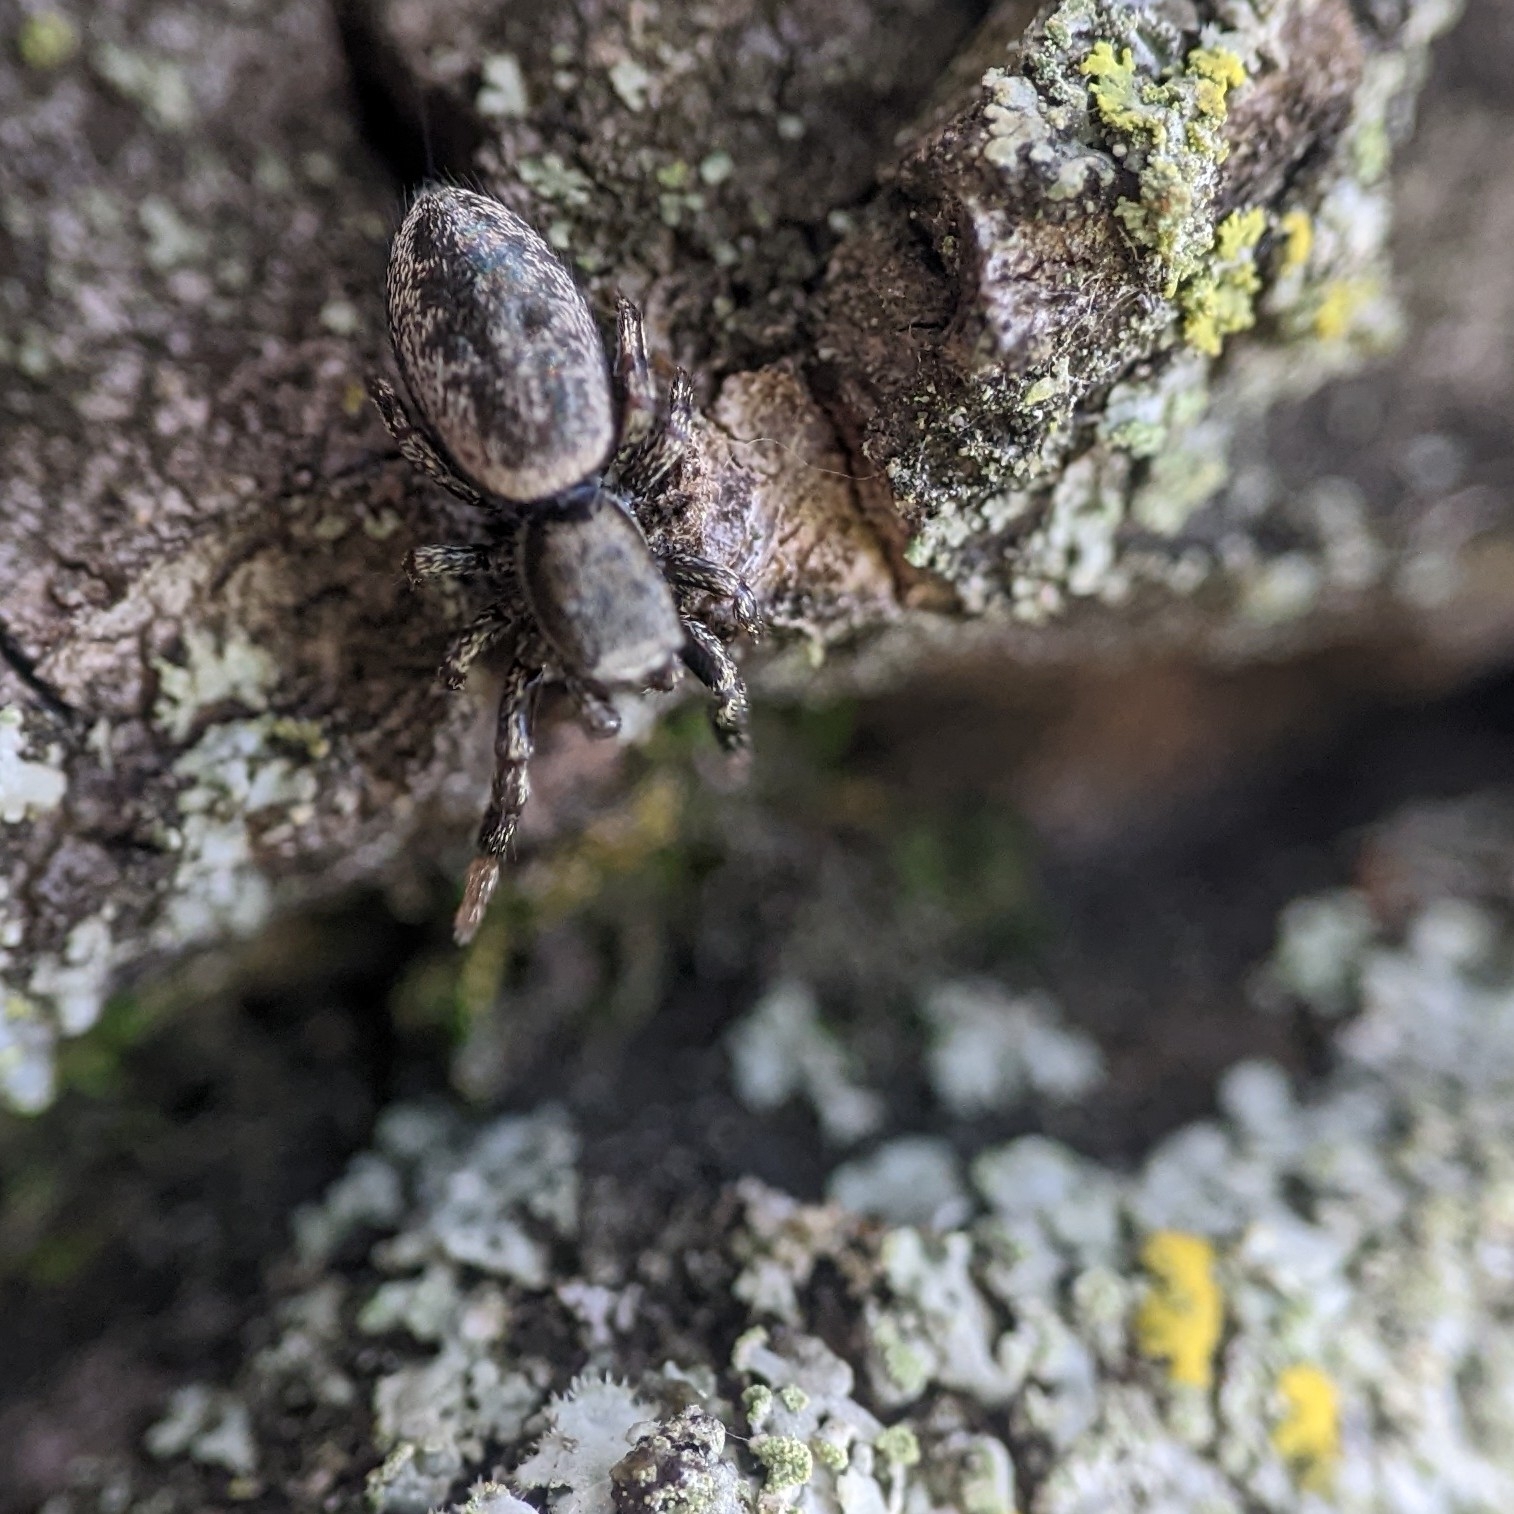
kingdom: Animalia
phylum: Arthropoda
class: Arachnida
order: Araneae
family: Salticidae
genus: Tutelina
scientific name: Tutelina harti
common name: Hart's jumping spider
